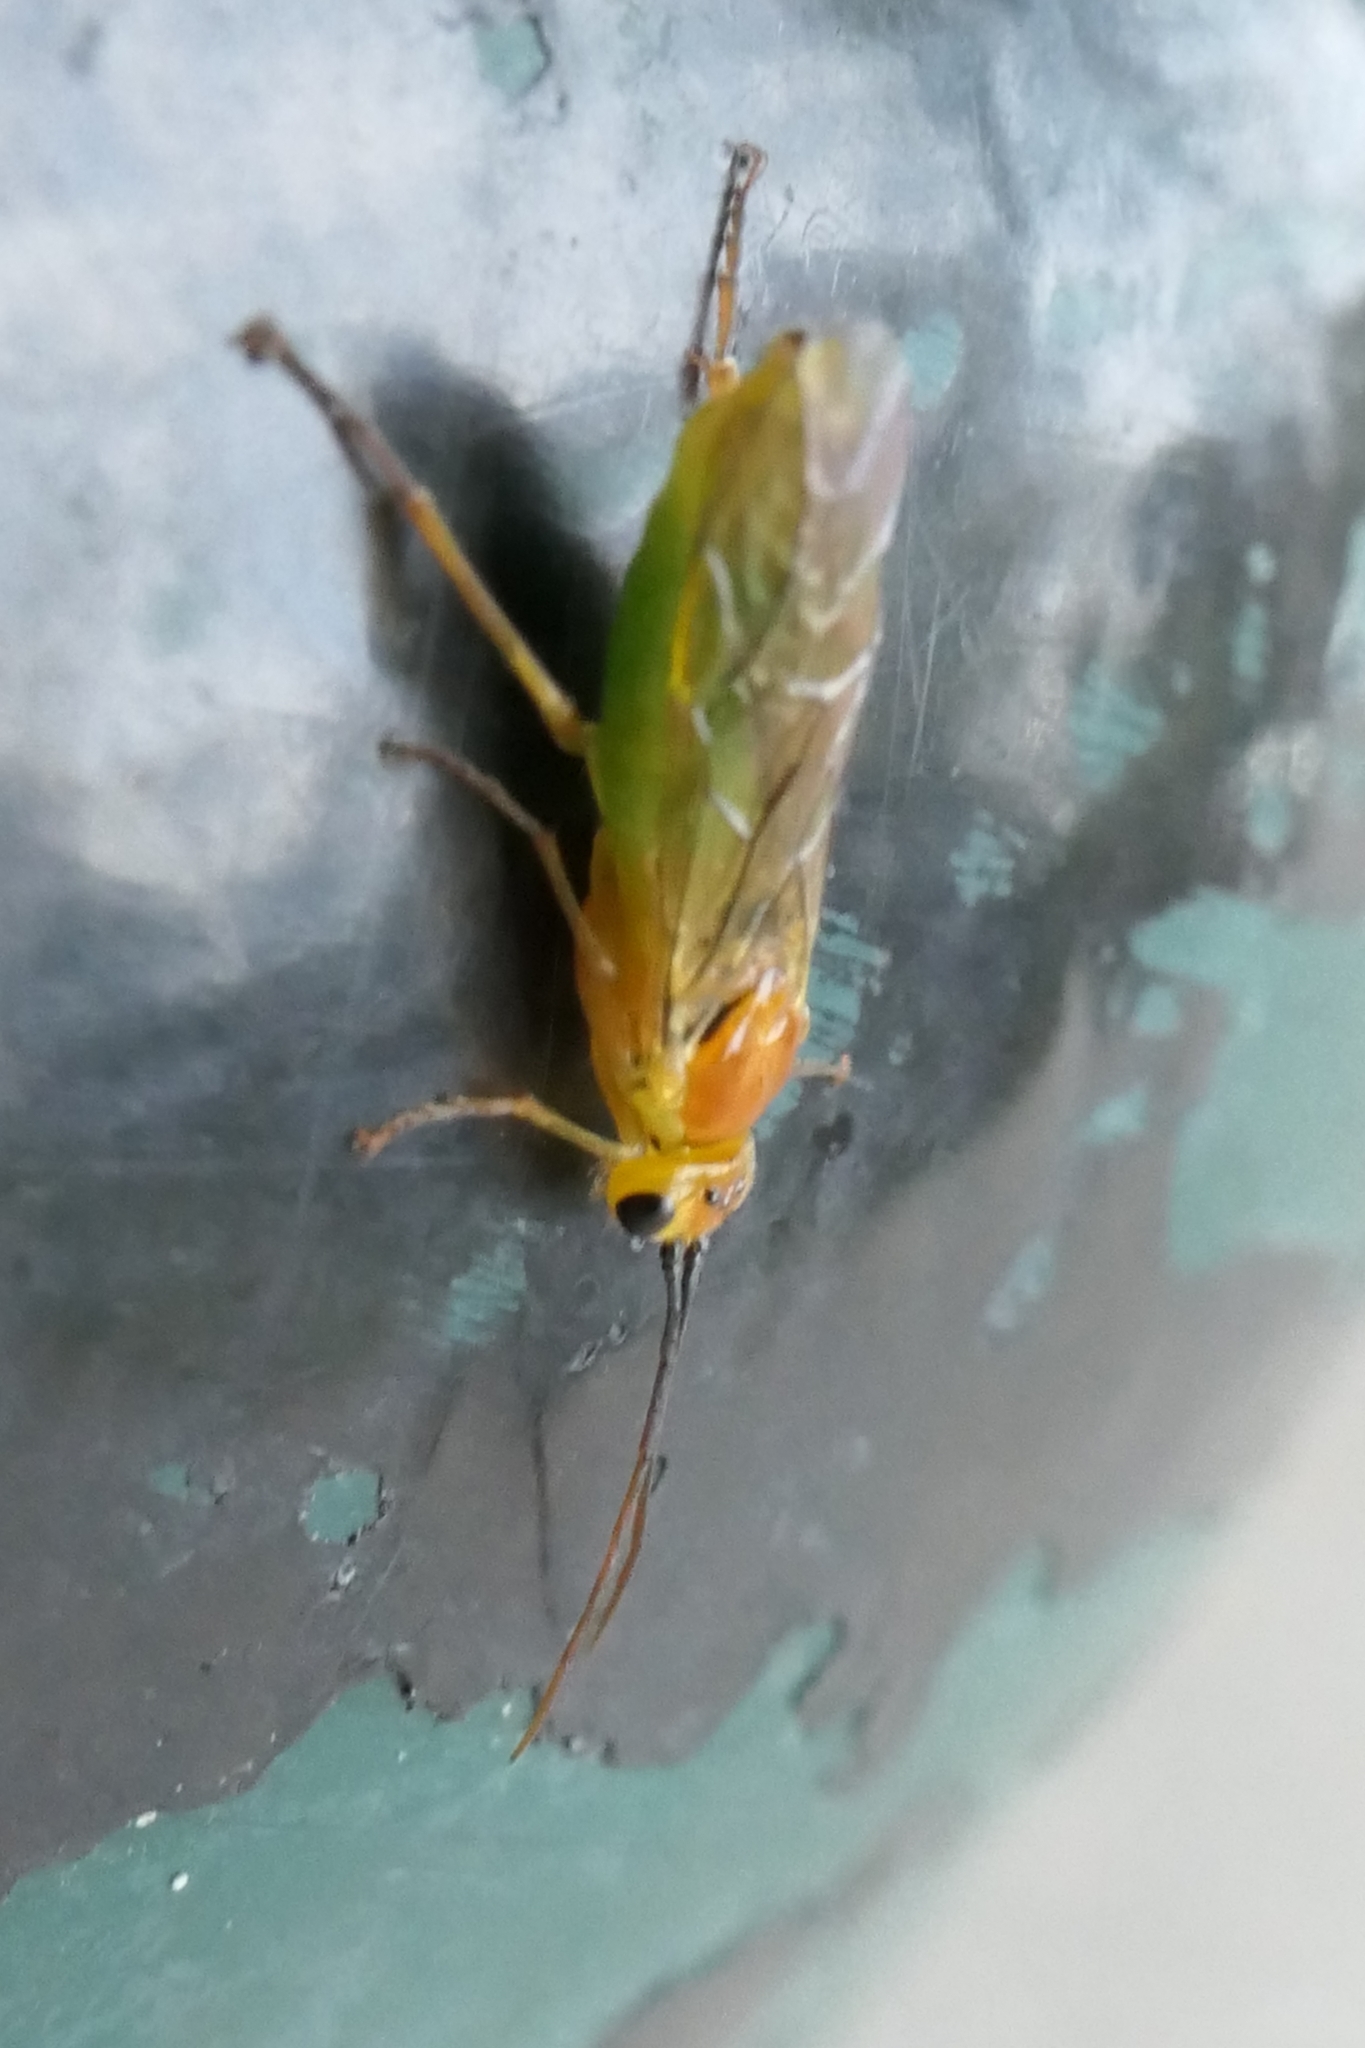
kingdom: Animalia
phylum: Arthropoda
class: Insecta
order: Hymenoptera
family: Tenthredinidae
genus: Nematus
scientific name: Nematus respondens
